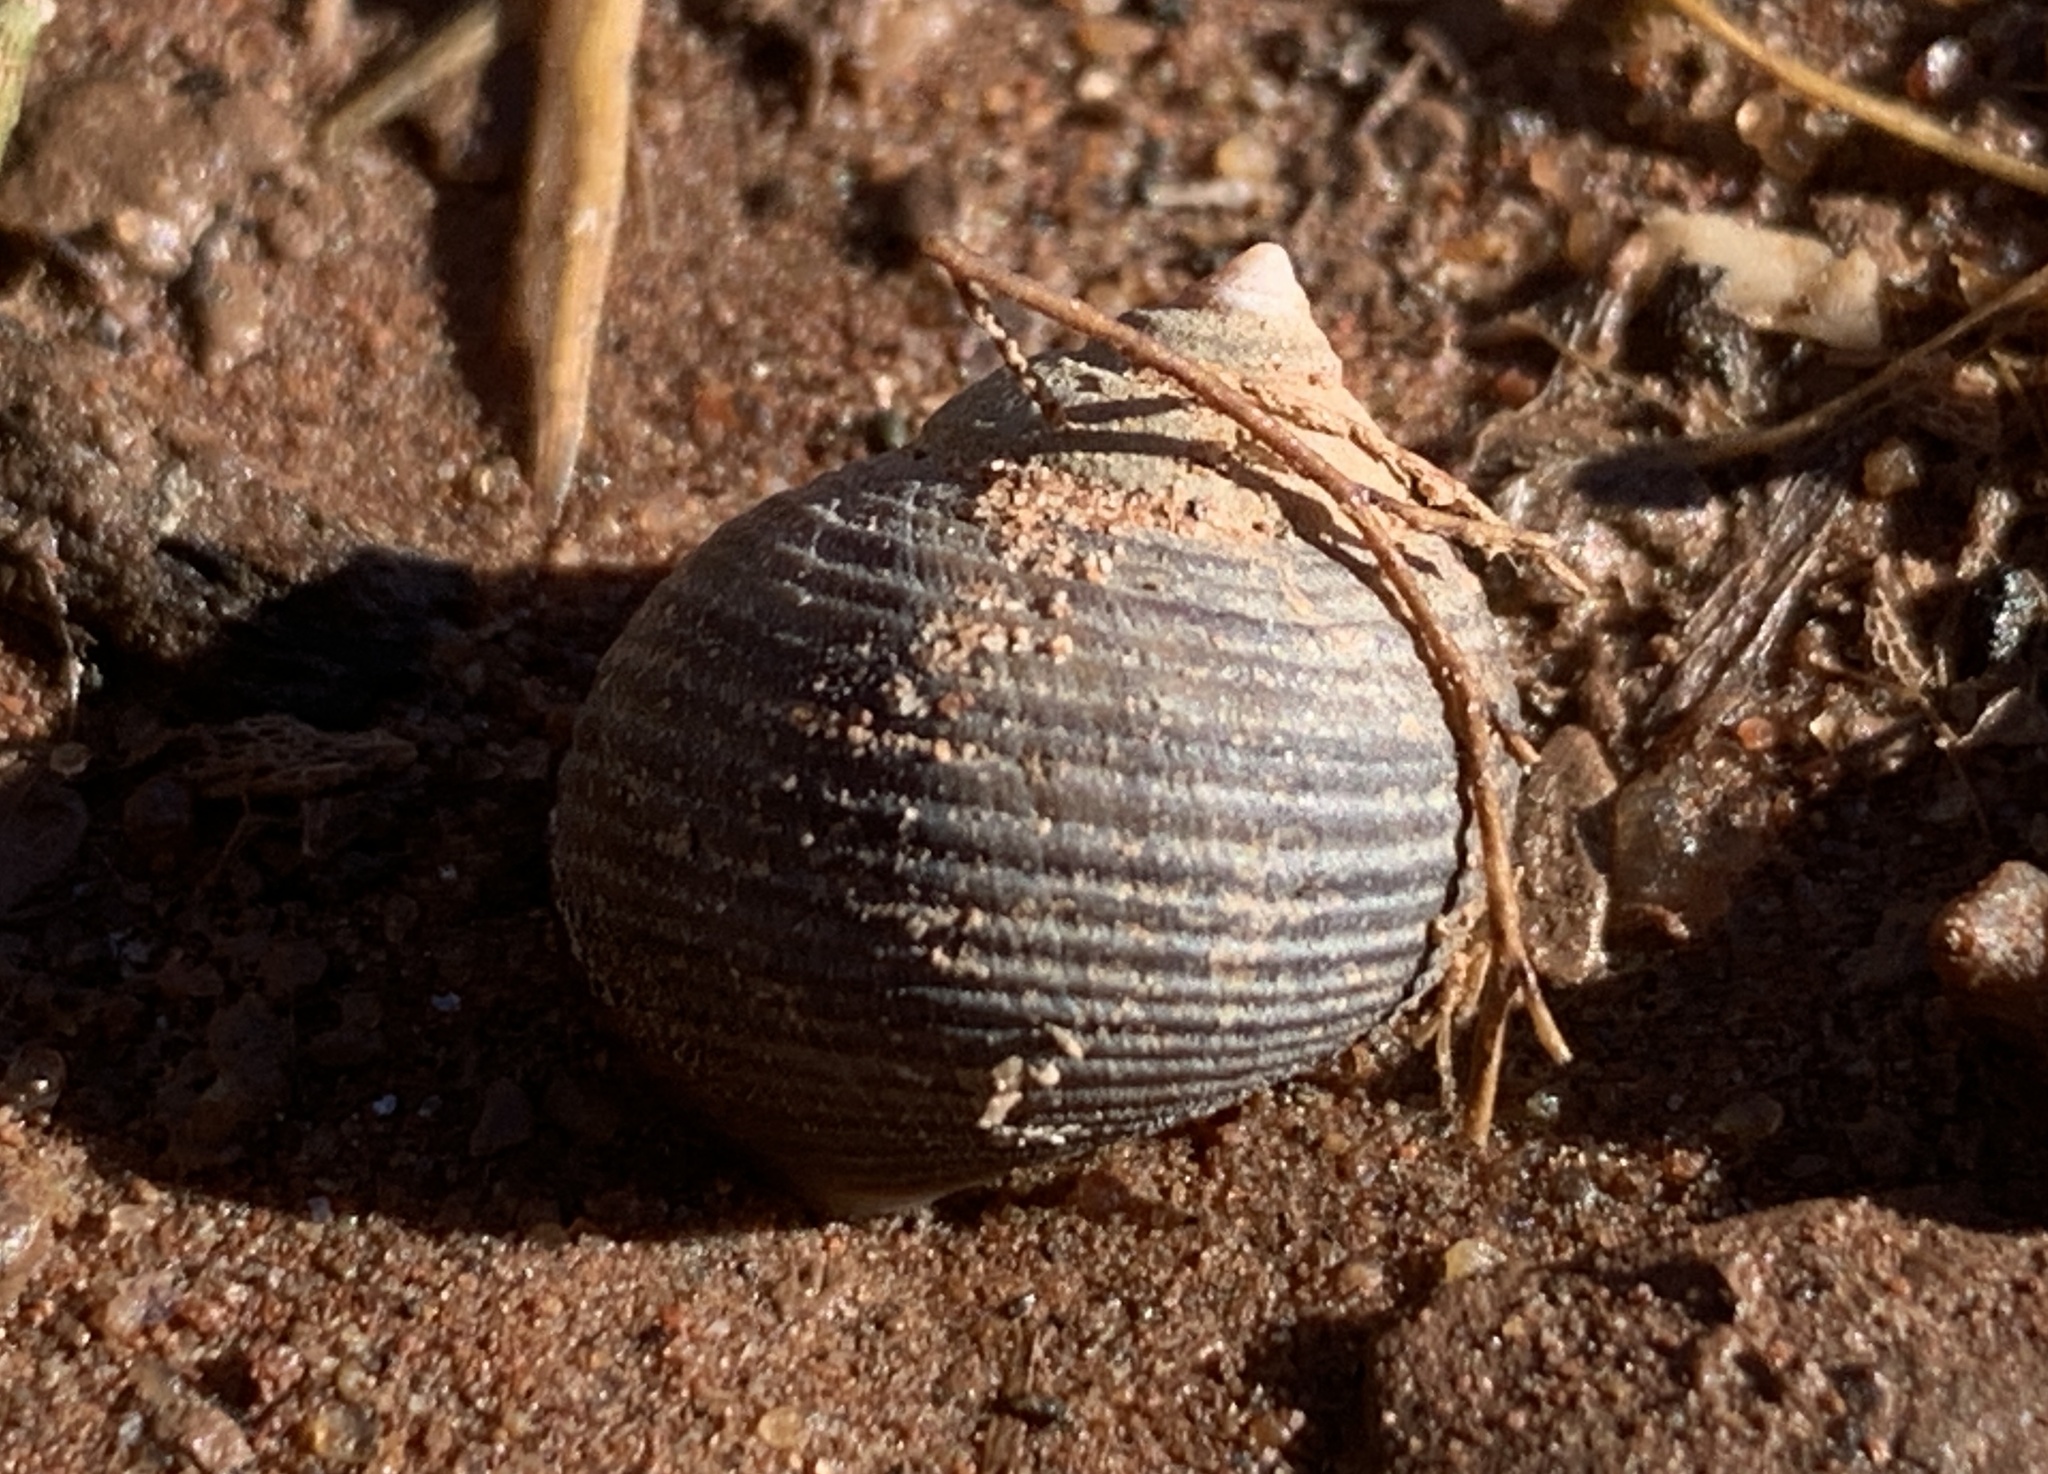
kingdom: Animalia
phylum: Mollusca
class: Gastropoda
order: Littorinimorpha
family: Littorinidae
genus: Littorina
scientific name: Littorina littorea
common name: Common periwinkle
